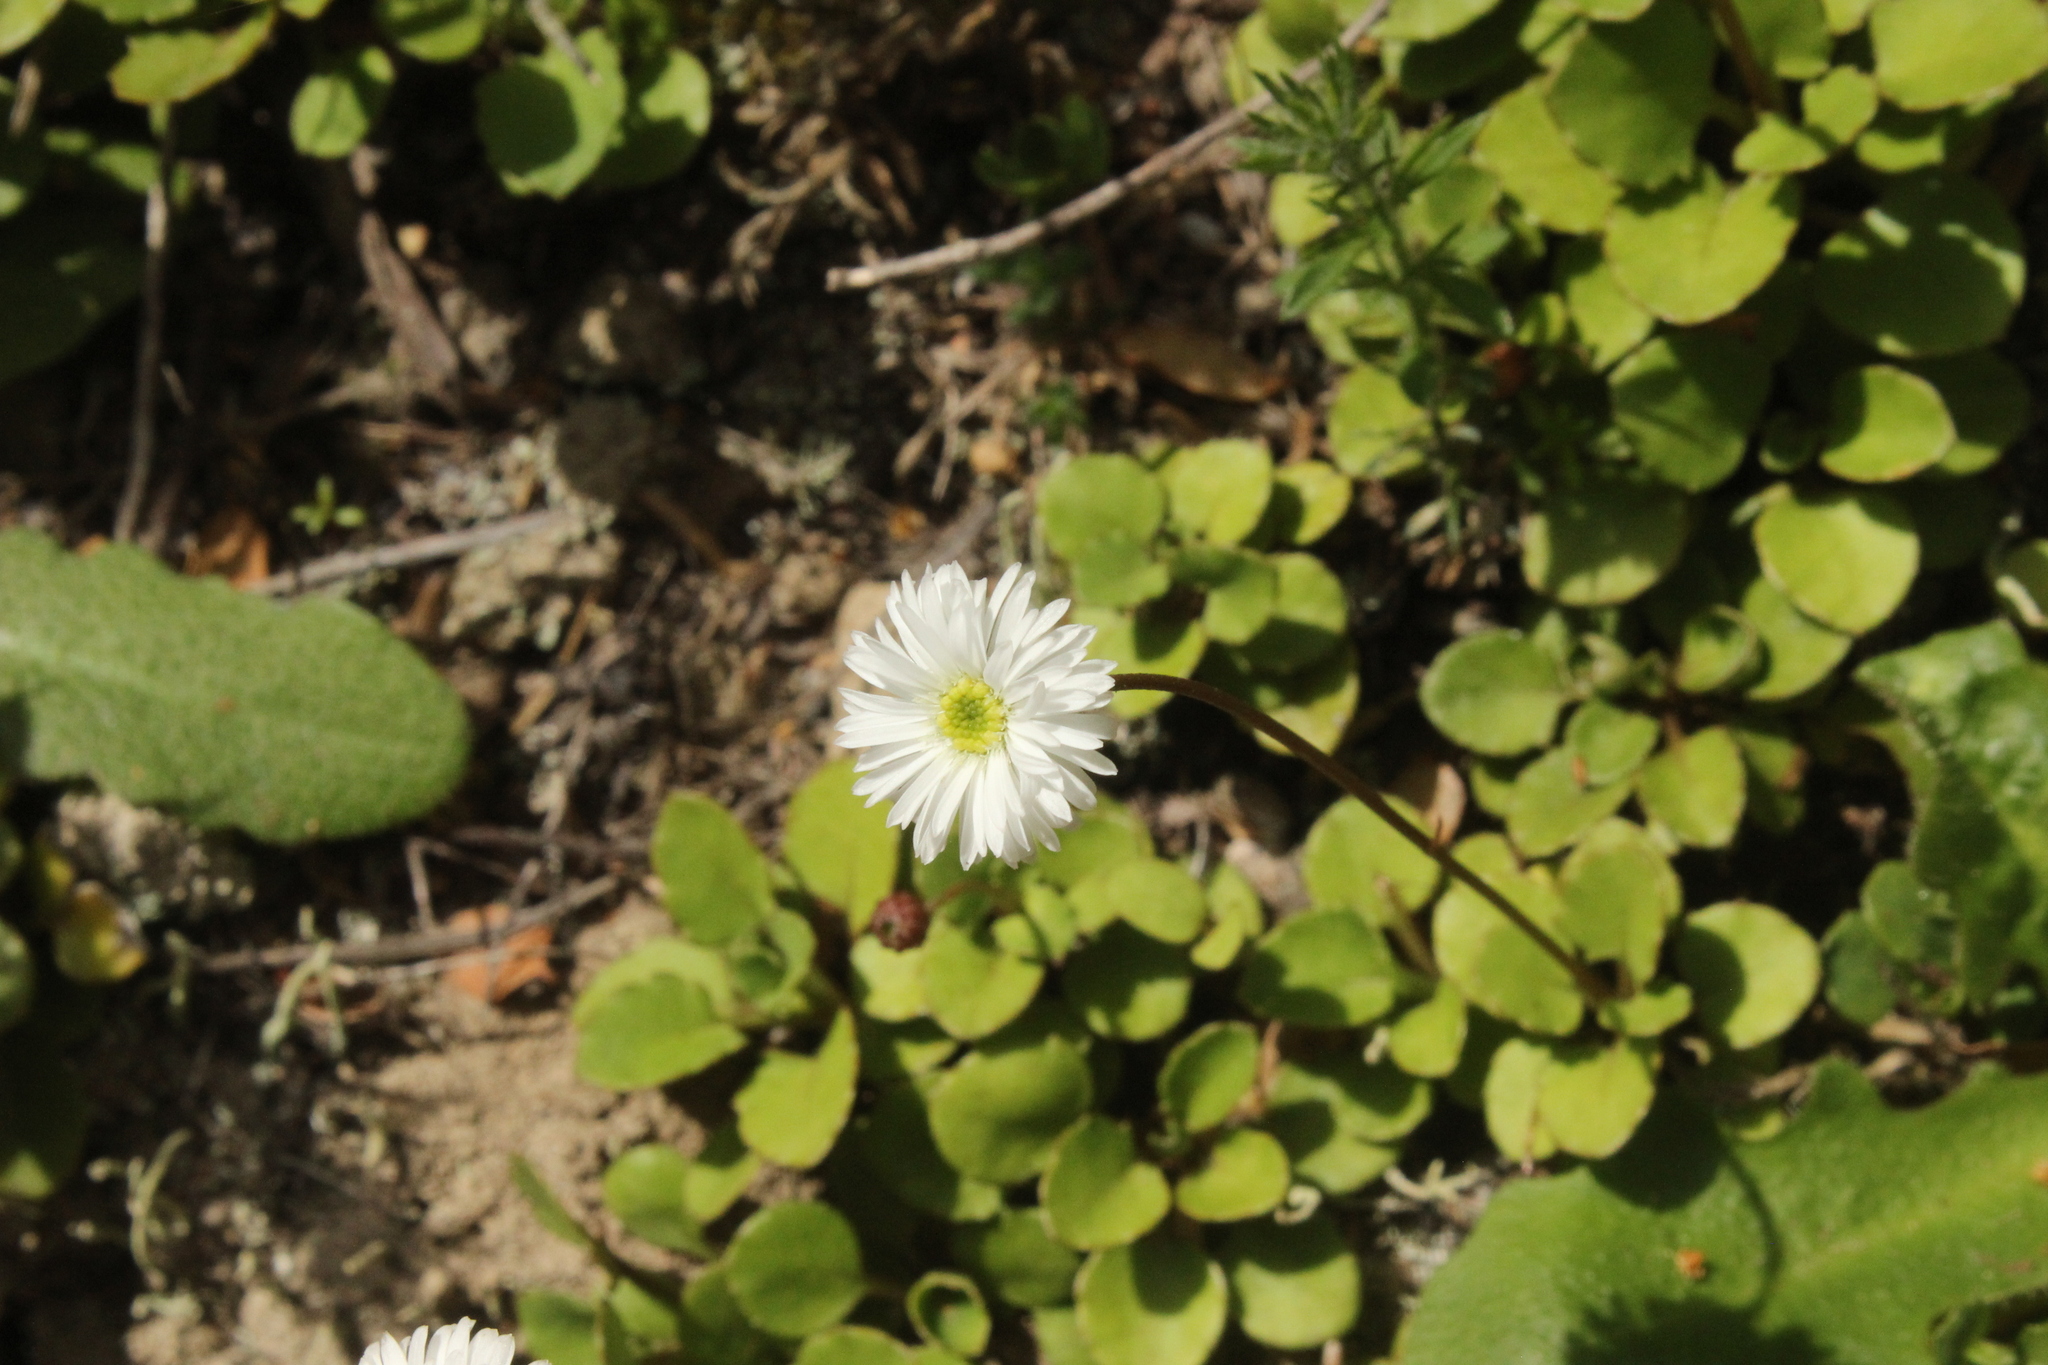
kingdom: Plantae
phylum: Tracheophyta
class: Magnoliopsida
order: Asterales
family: Asteraceae
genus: Lagenophora
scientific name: Lagenophora pumila
